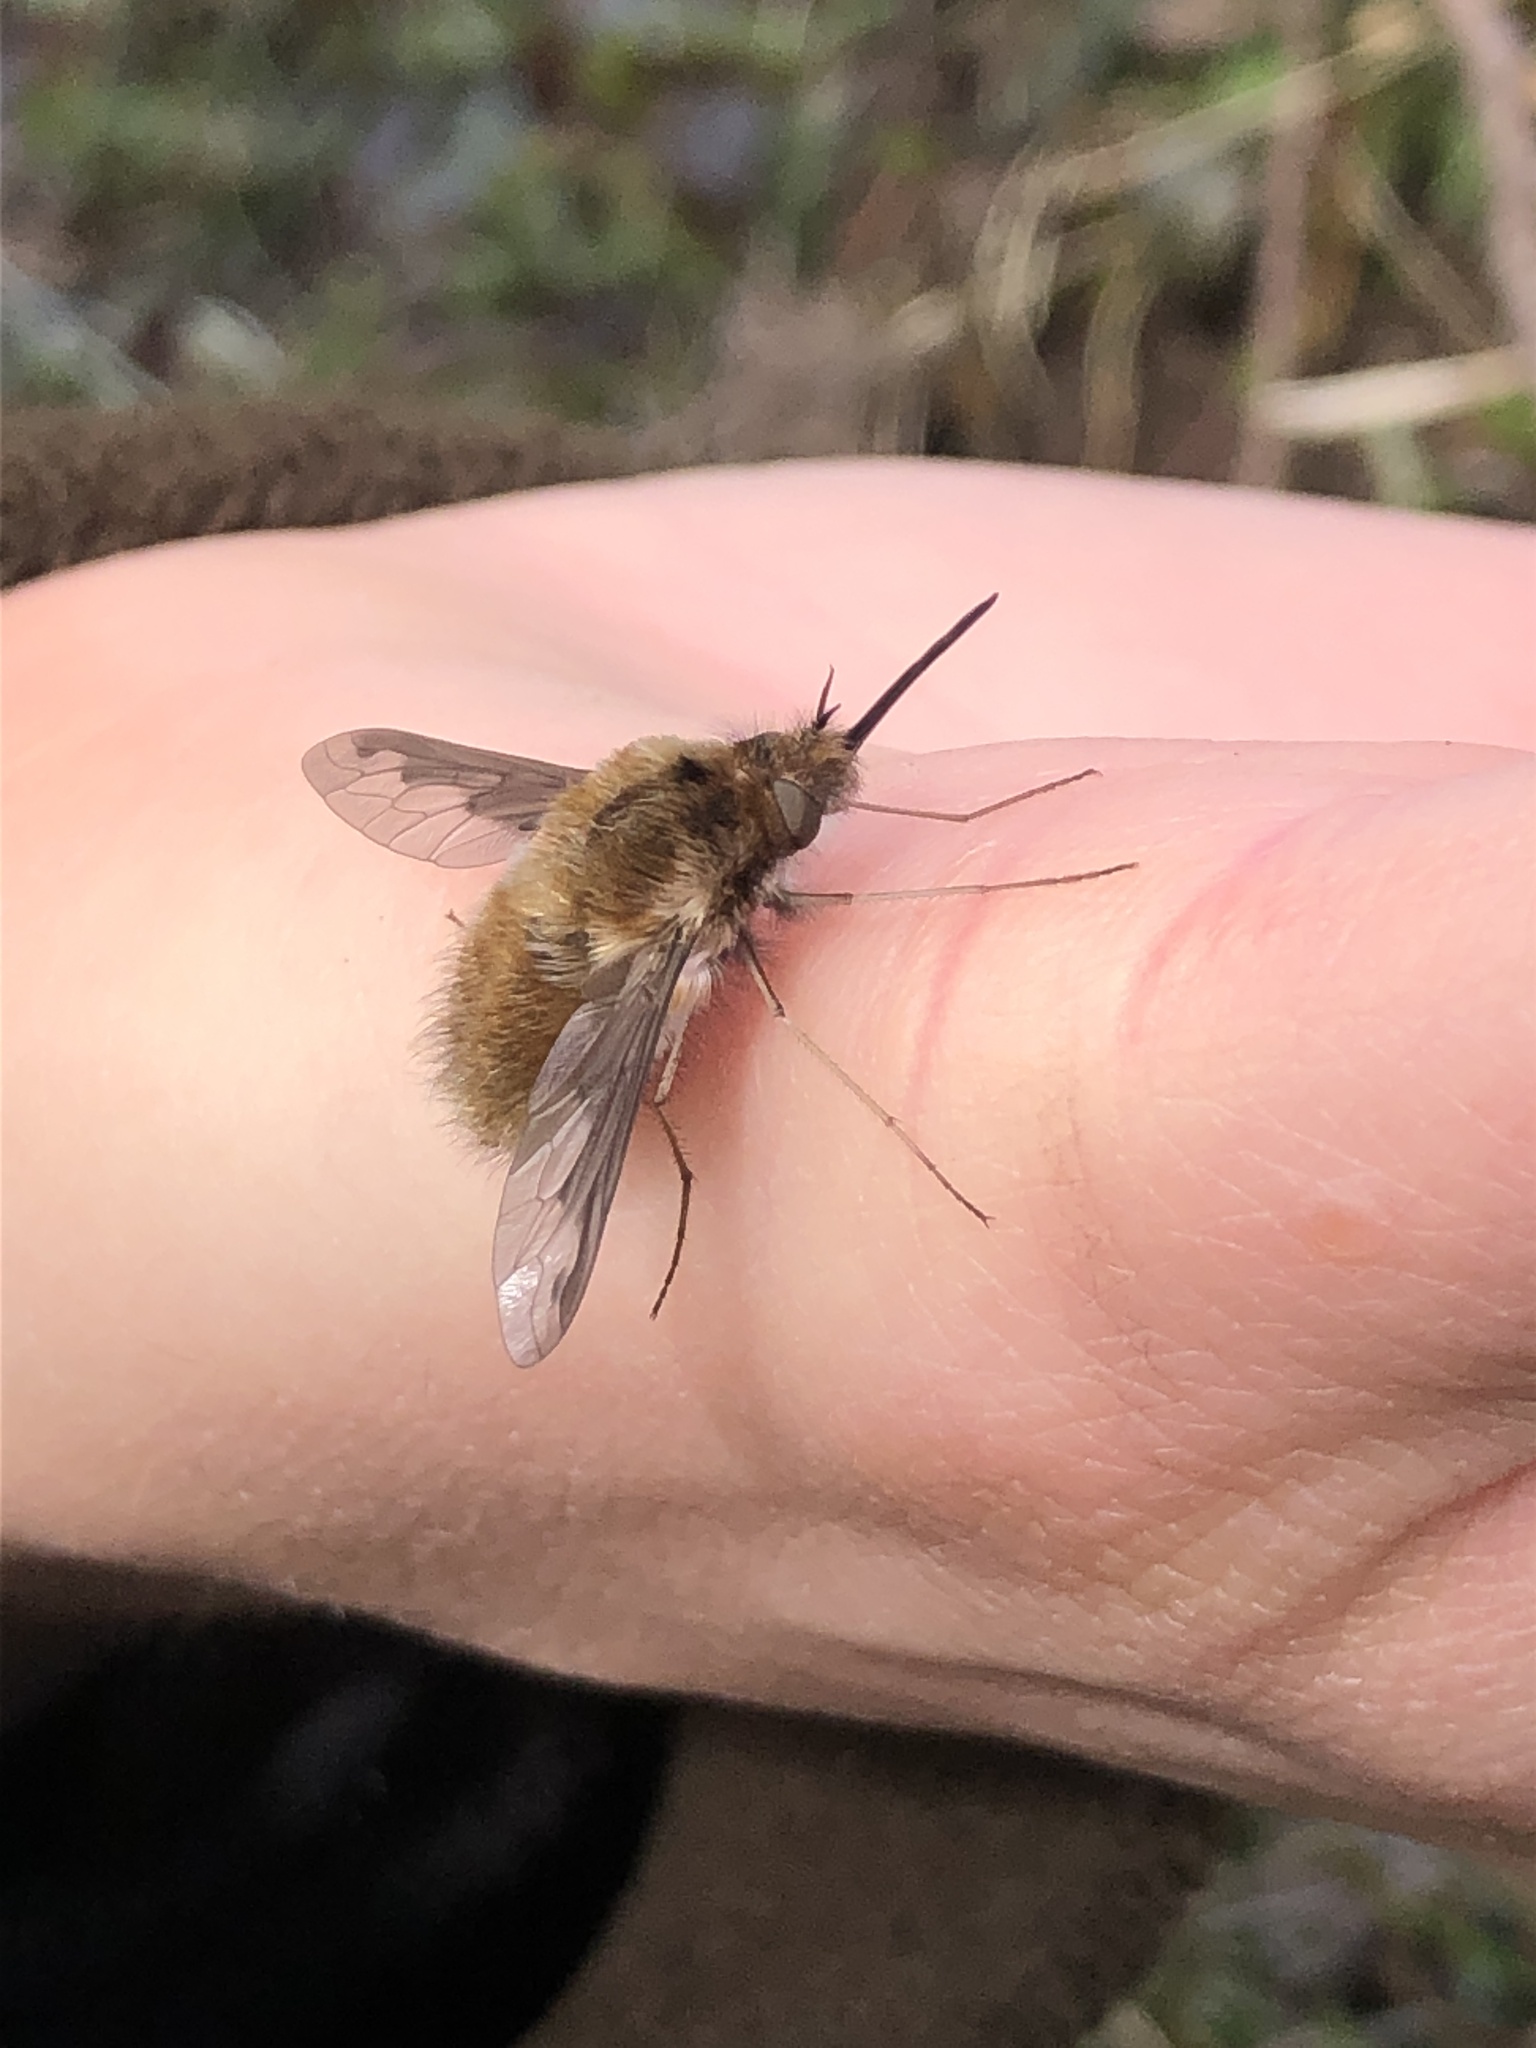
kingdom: Animalia
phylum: Arthropoda
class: Insecta
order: Diptera
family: Bombyliidae
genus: Bombylius
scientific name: Bombylius major
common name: Bee fly
